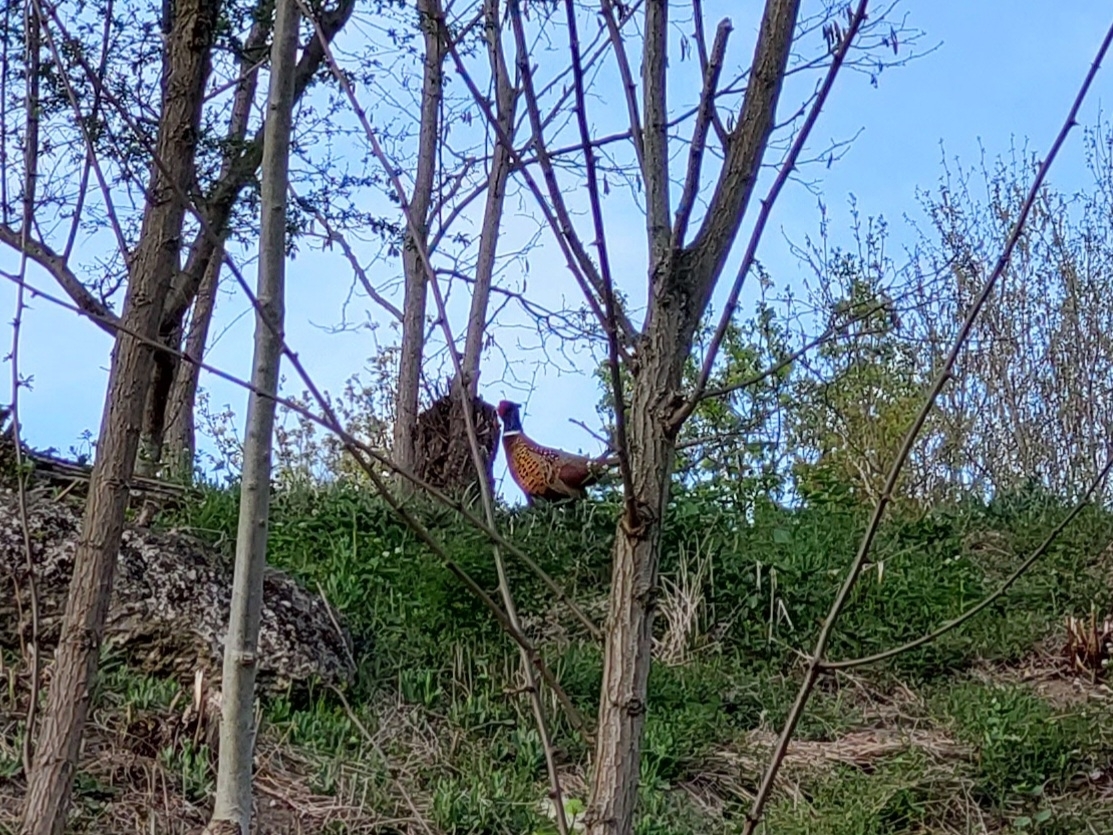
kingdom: Animalia
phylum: Chordata
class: Aves
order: Galliformes
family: Phasianidae
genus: Phasianus
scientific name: Phasianus colchicus
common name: Common pheasant
